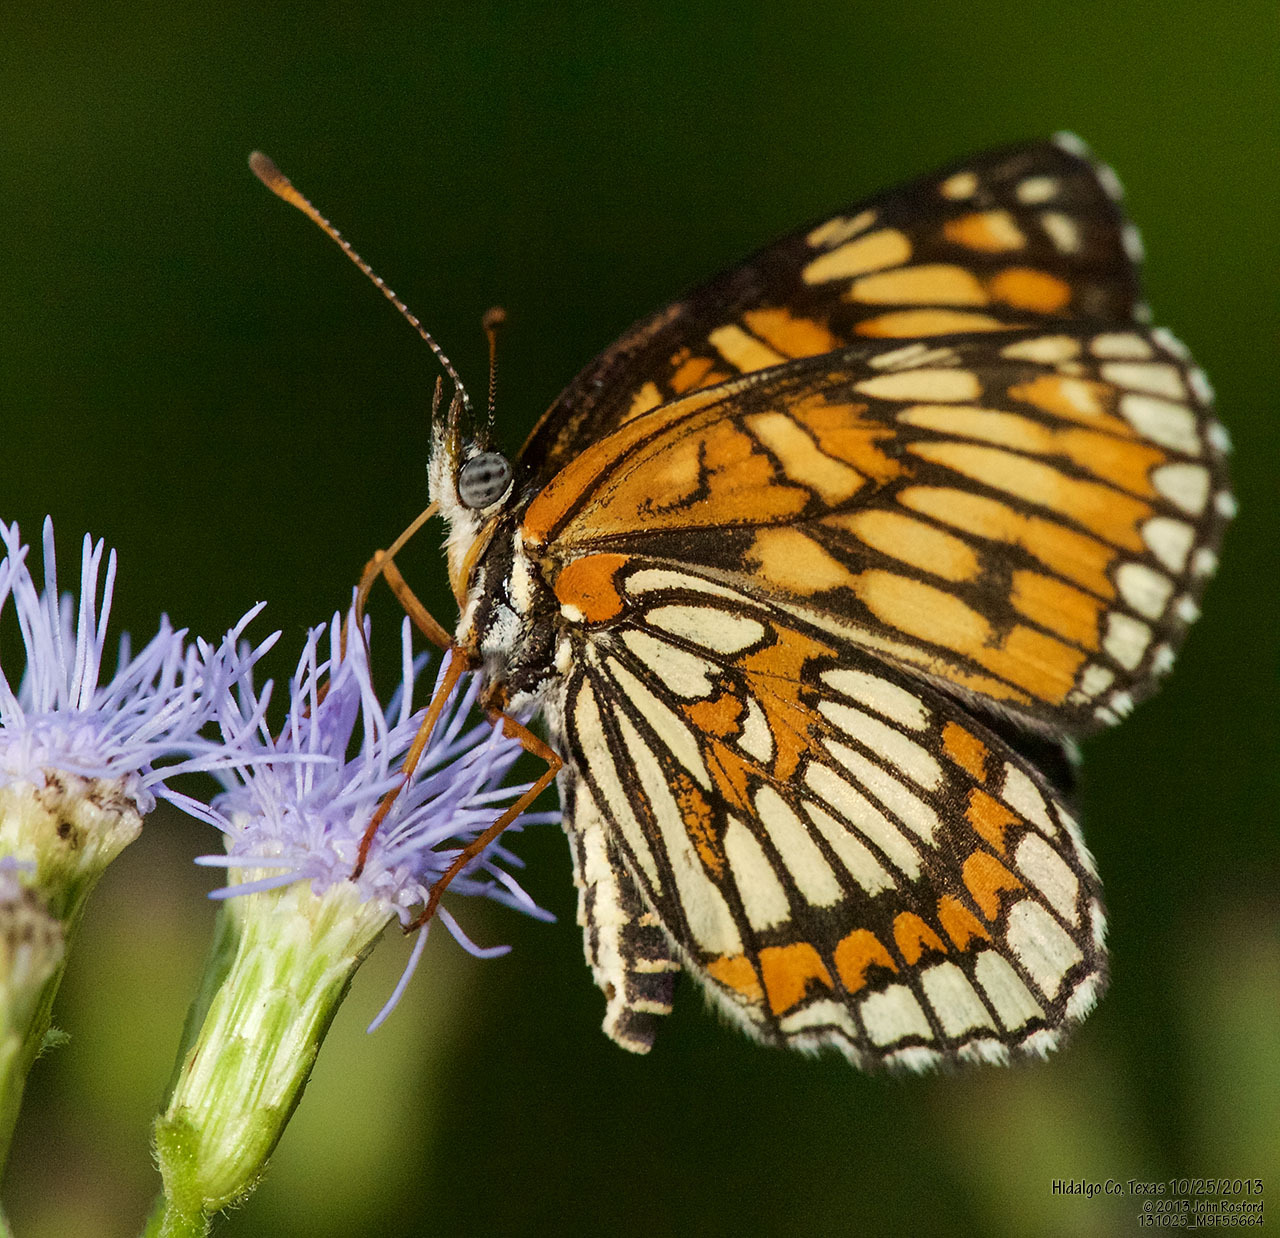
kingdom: Animalia
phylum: Arthropoda
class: Insecta
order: Lepidoptera
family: Nymphalidae
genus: Thessalia
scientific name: Thessalia theona
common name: Nymphalid moth
